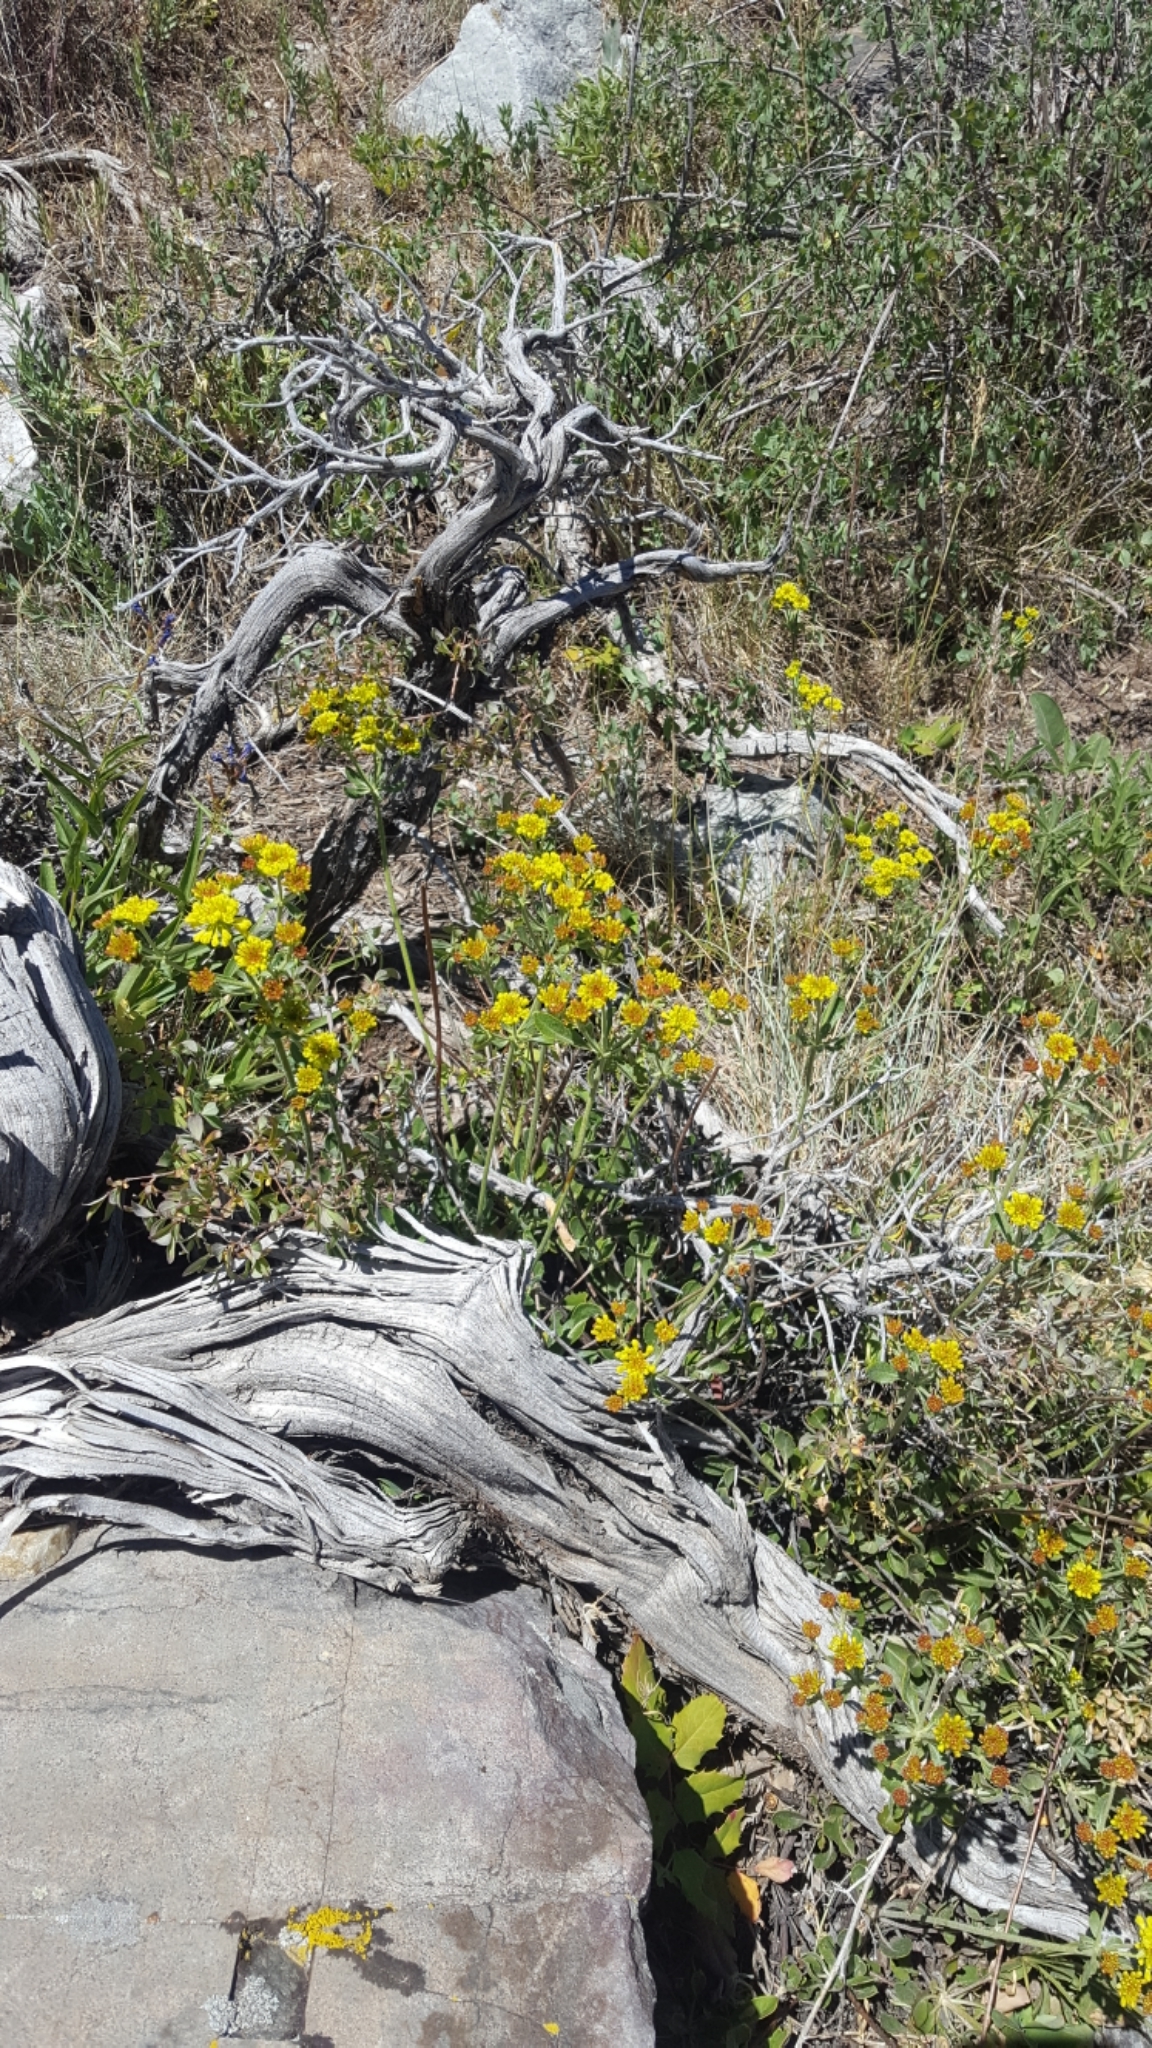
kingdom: Plantae
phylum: Tracheophyta
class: Magnoliopsida
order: Caryophyllales
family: Polygonaceae
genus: Eriogonum
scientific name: Eriogonum umbellatum
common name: Sulfur-buckwheat
